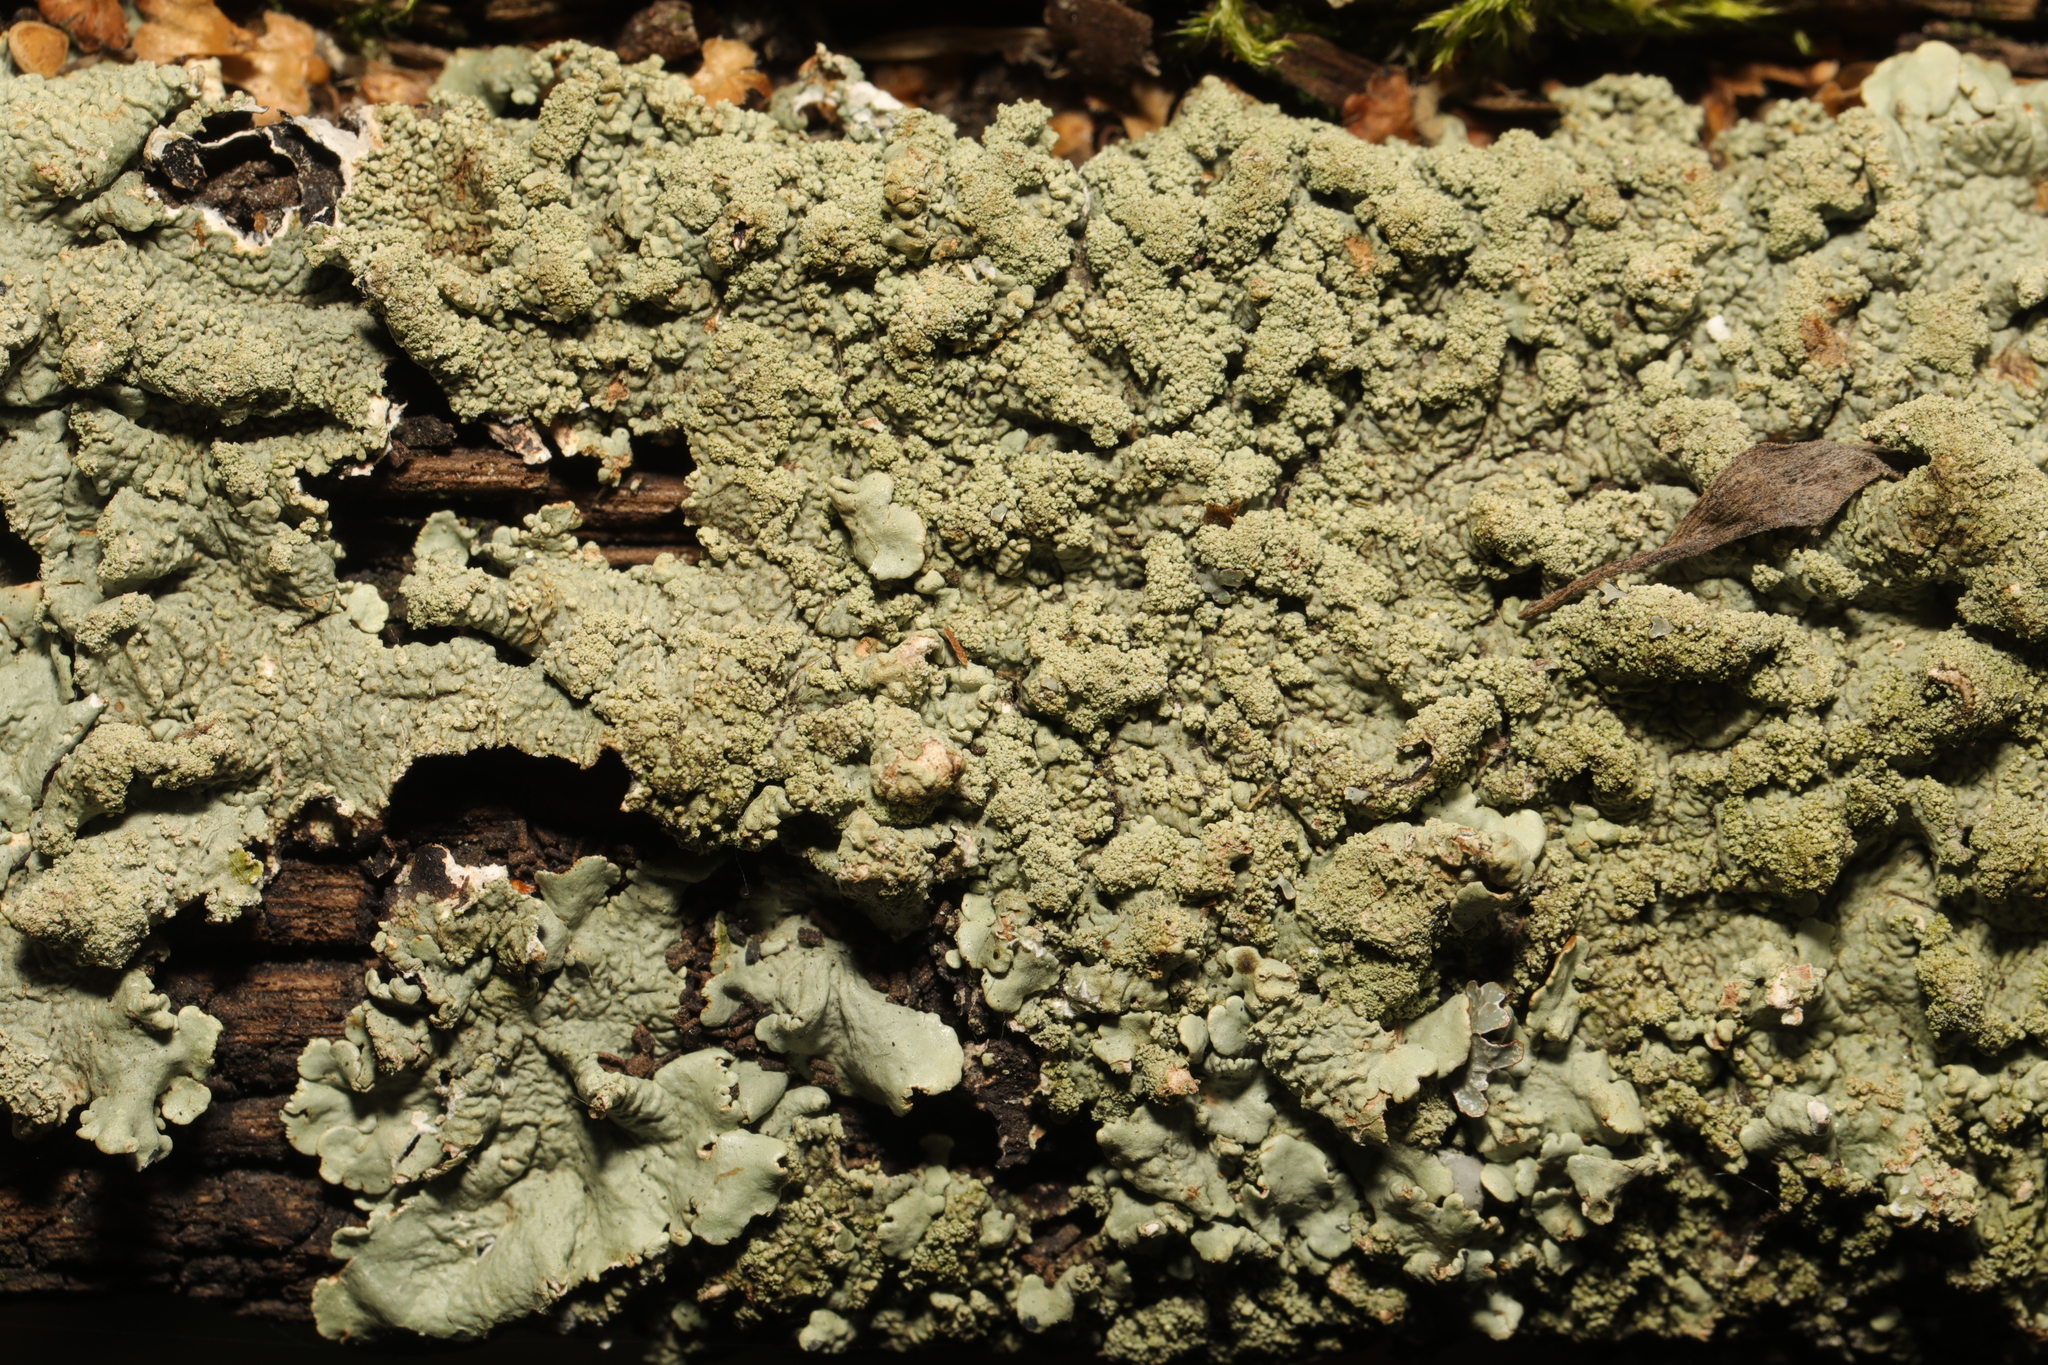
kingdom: Fungi
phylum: Ascomycota
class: Lecanoromycetes
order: Lecanorales
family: Parmeliaceae
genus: Flavoparmelia
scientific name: Flavoparmelia caperata
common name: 40-mile per hour lichen
